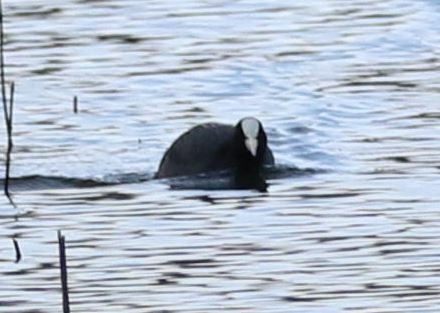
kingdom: Animalia
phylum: Chordata
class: Aves
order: Gruiformes
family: Rallidae
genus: Fulica
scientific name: Fulica atra
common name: Eurasian coot
